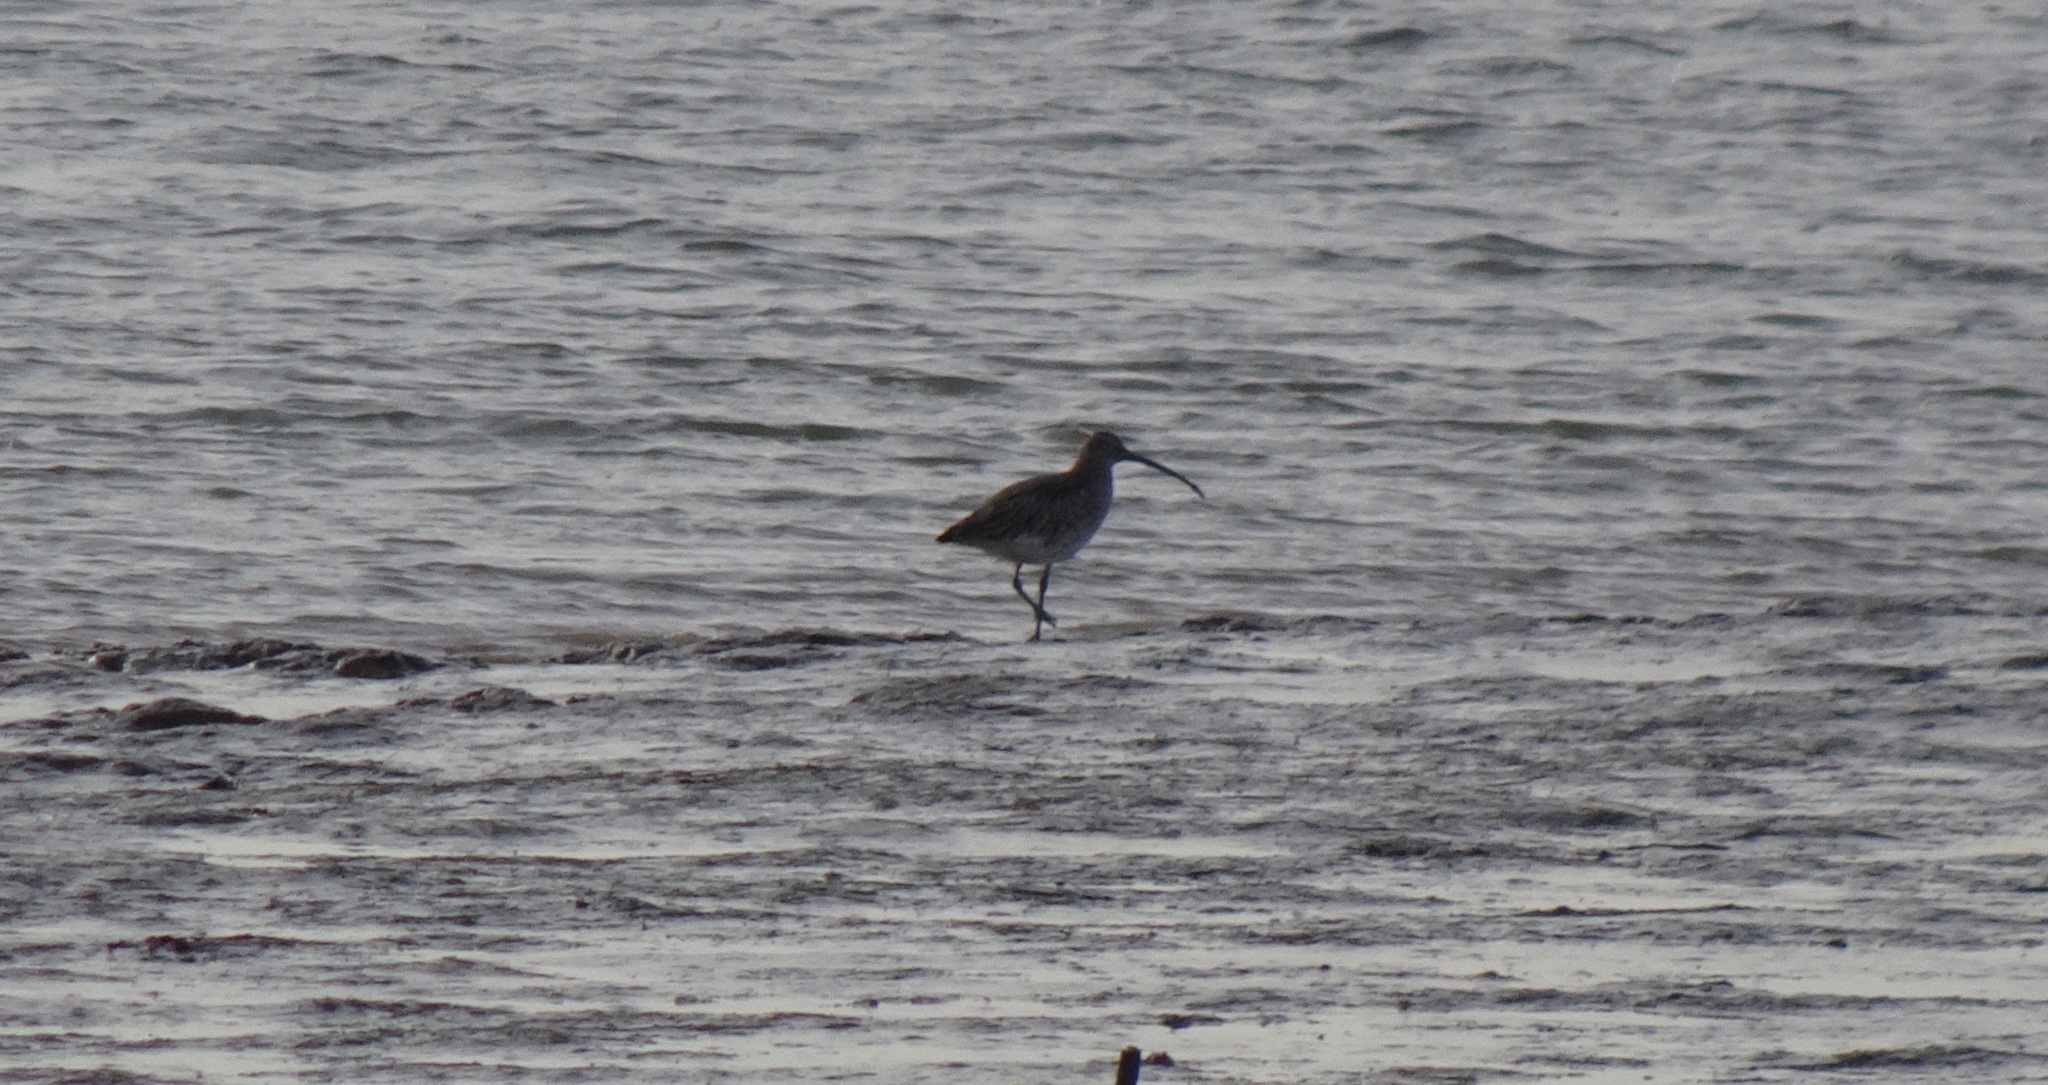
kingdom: Animalia
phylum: Chordata
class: Aves
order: Charadriiformes
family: Scolopacidae
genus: Numenius
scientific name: Numenius arquata
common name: Eurasian curlew
